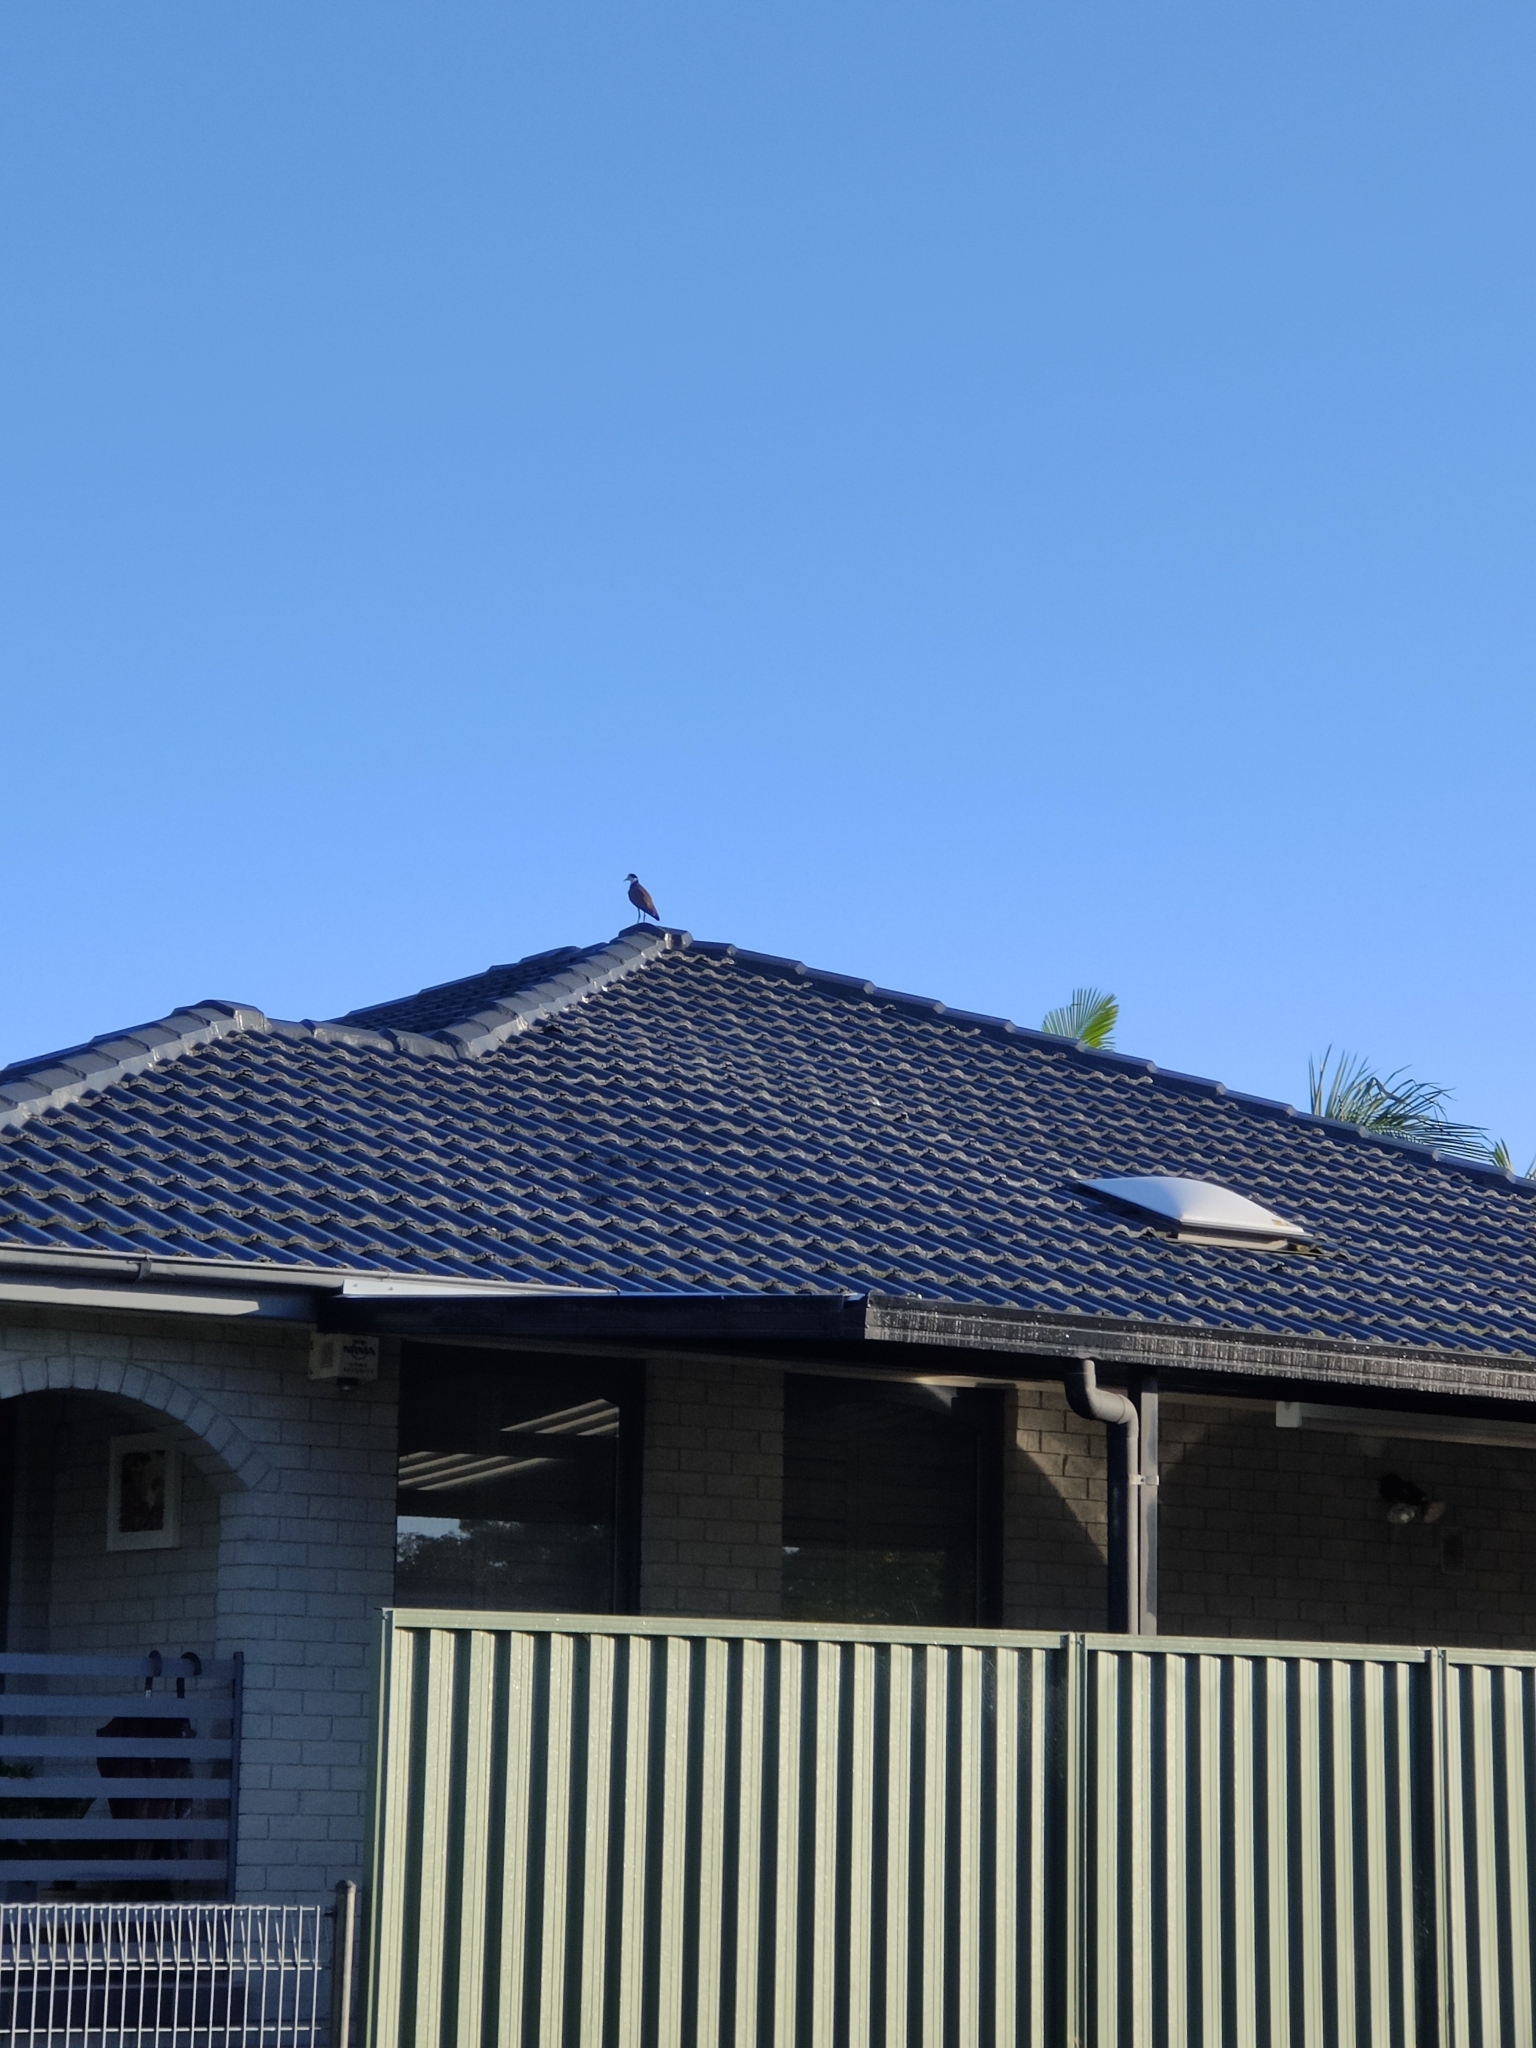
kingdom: Animalia
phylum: Chordata
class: Aves
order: Charadriiformes
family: Charadriidae
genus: Vanellus
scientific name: Vanellus miles
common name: Masked lapwing
